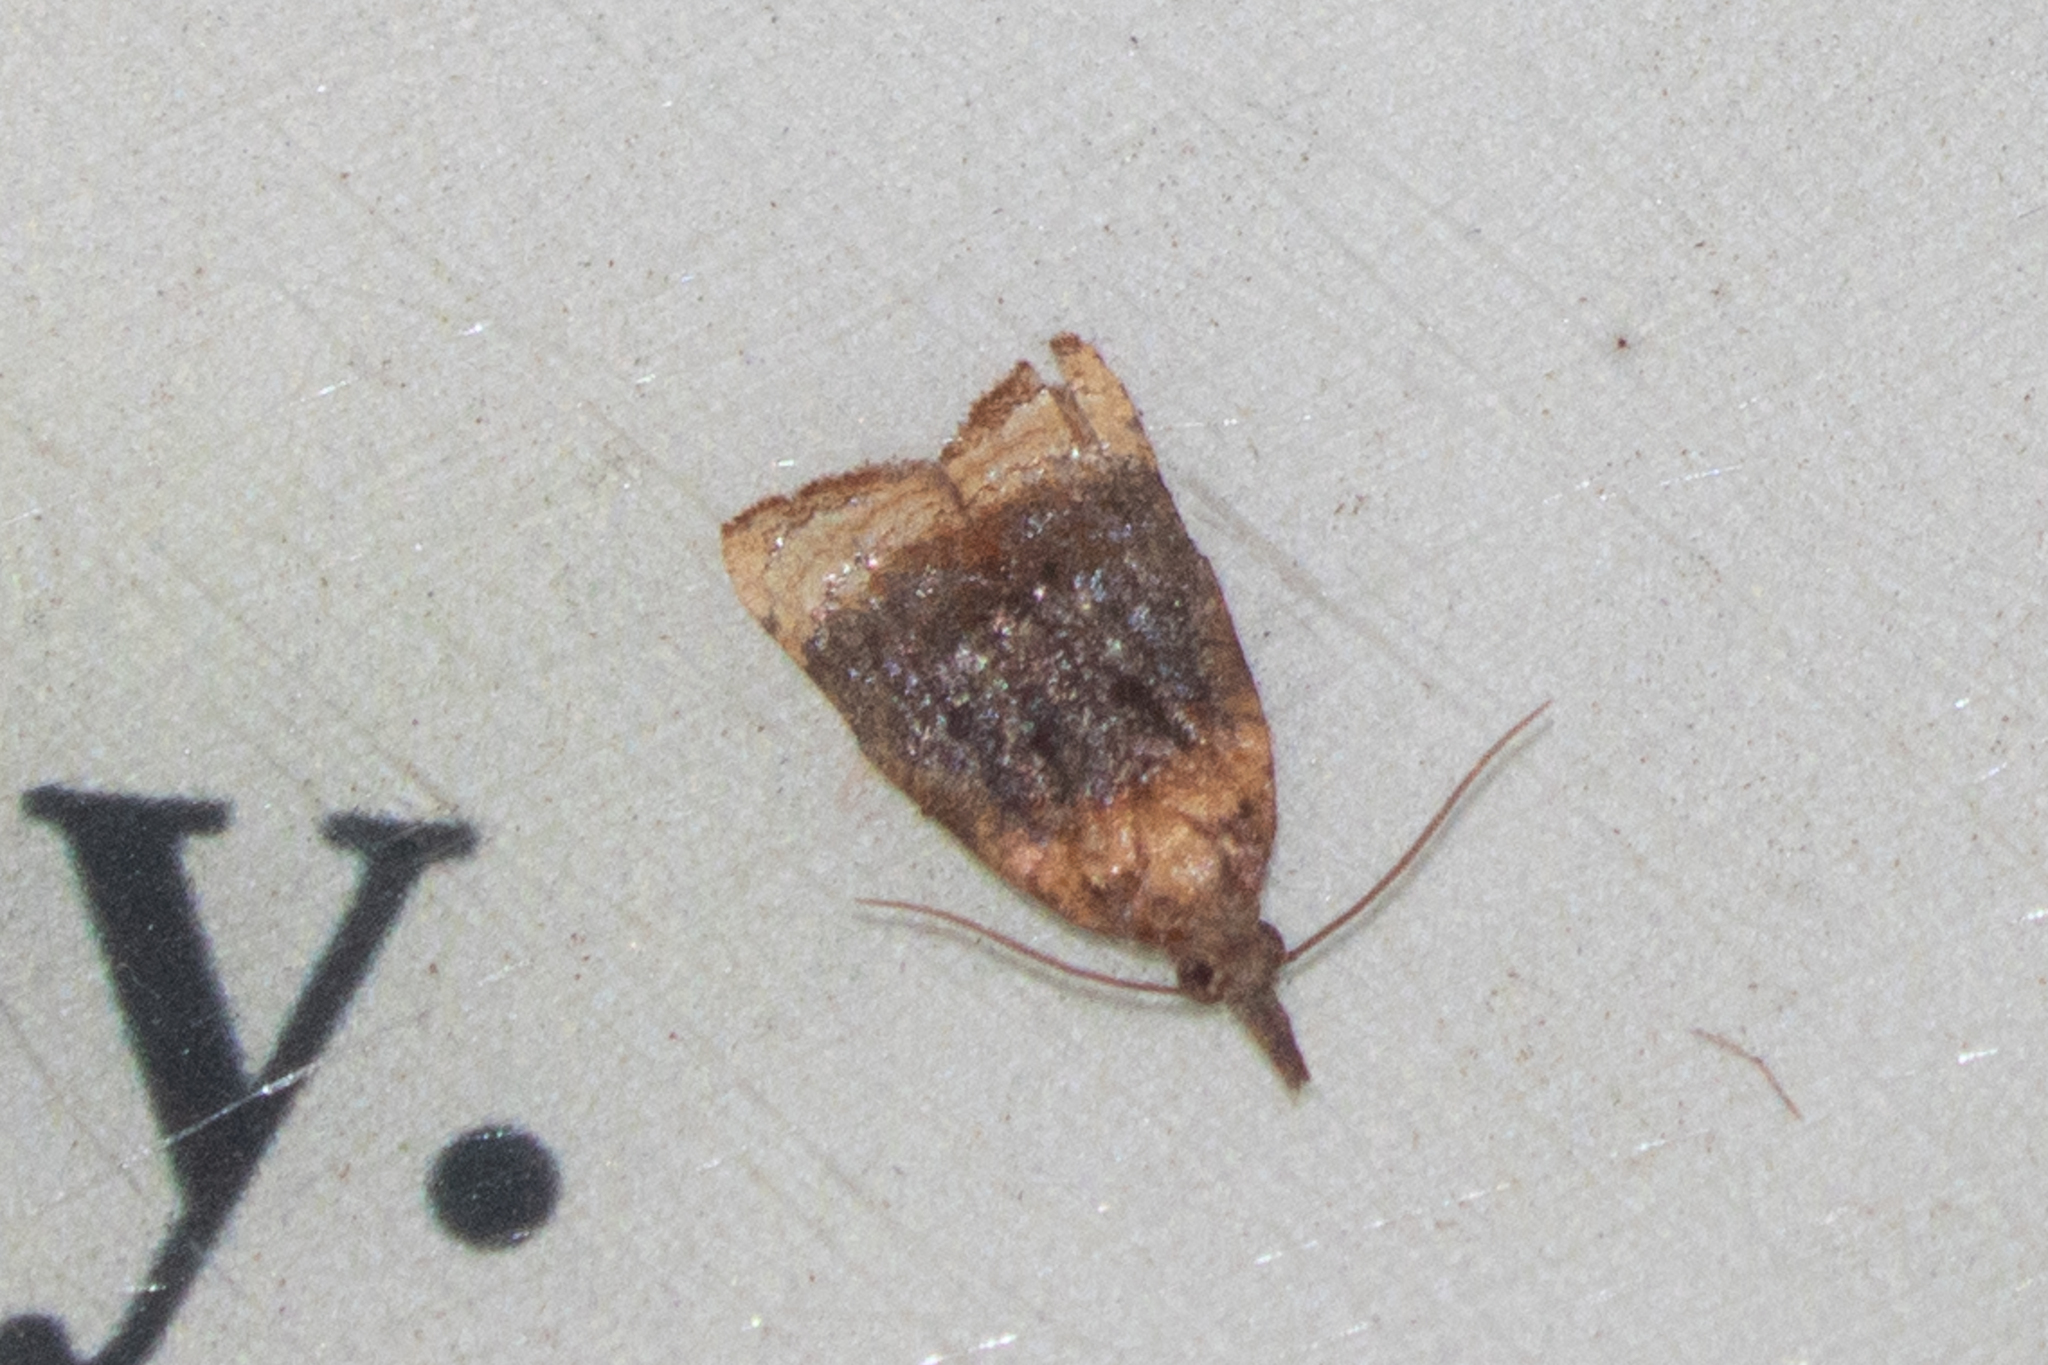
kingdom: Animalia
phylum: Arthropoda
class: Insecta
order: Lepidoptera
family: Tortricidae
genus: Platynota
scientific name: Platynota flavedana
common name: Black-shaded platynota moth
